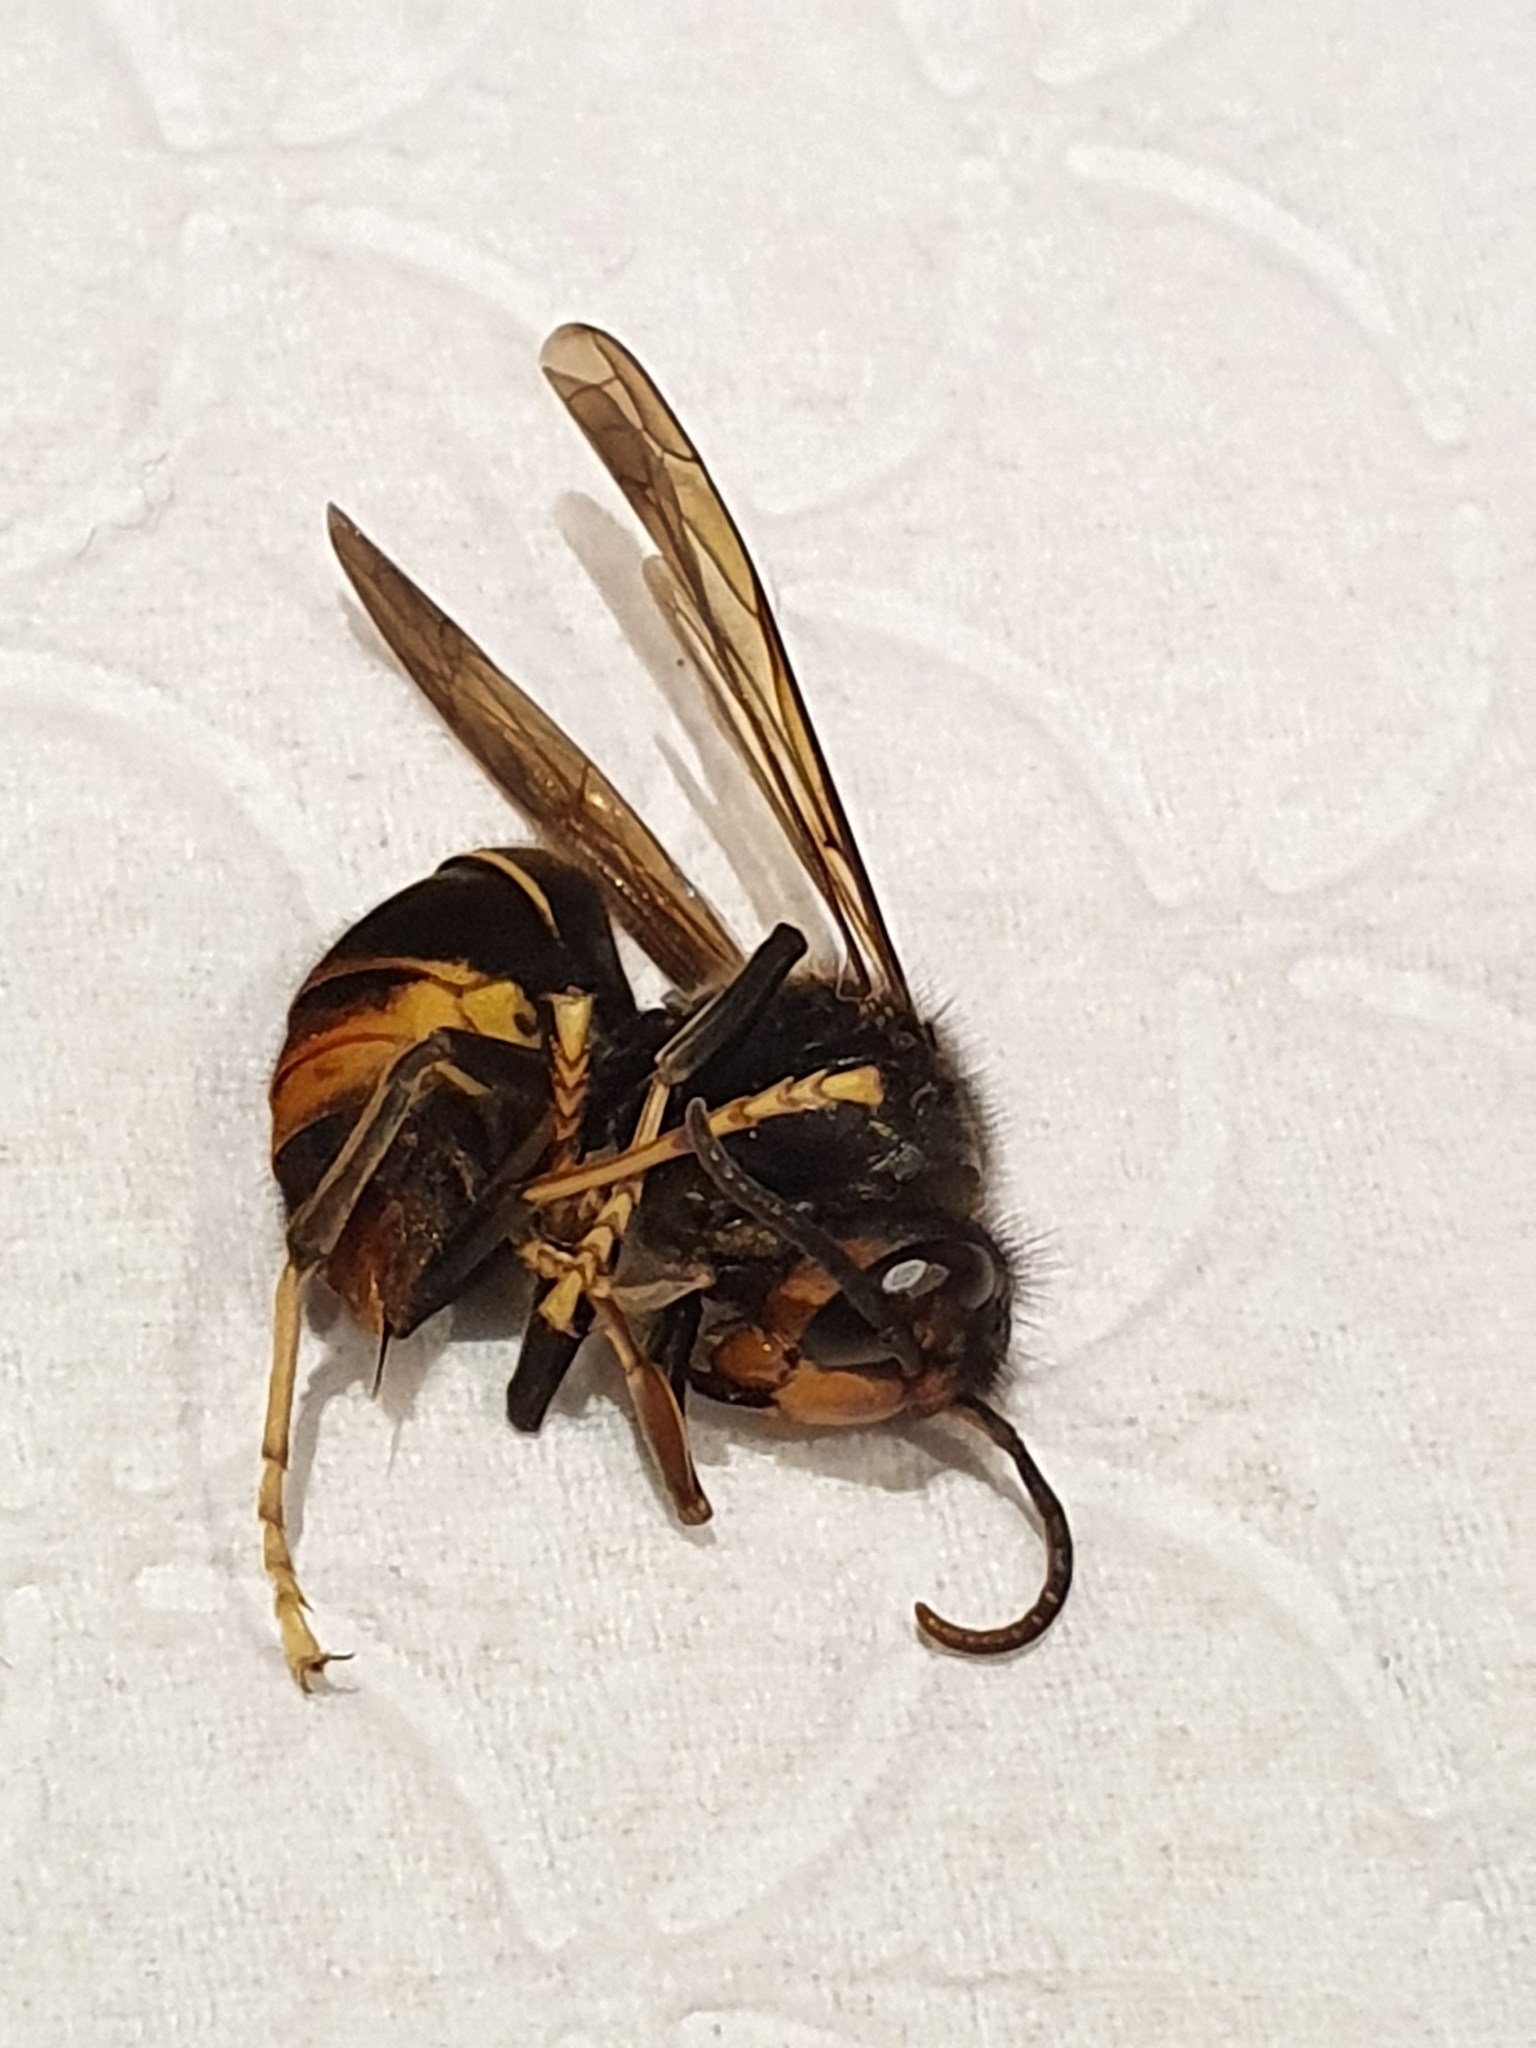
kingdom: Animalia
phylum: Arthropoda
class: Insecta
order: Hymenoptera
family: Vespidae
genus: Vespa
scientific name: Vespa velutina
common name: Asian hornet
